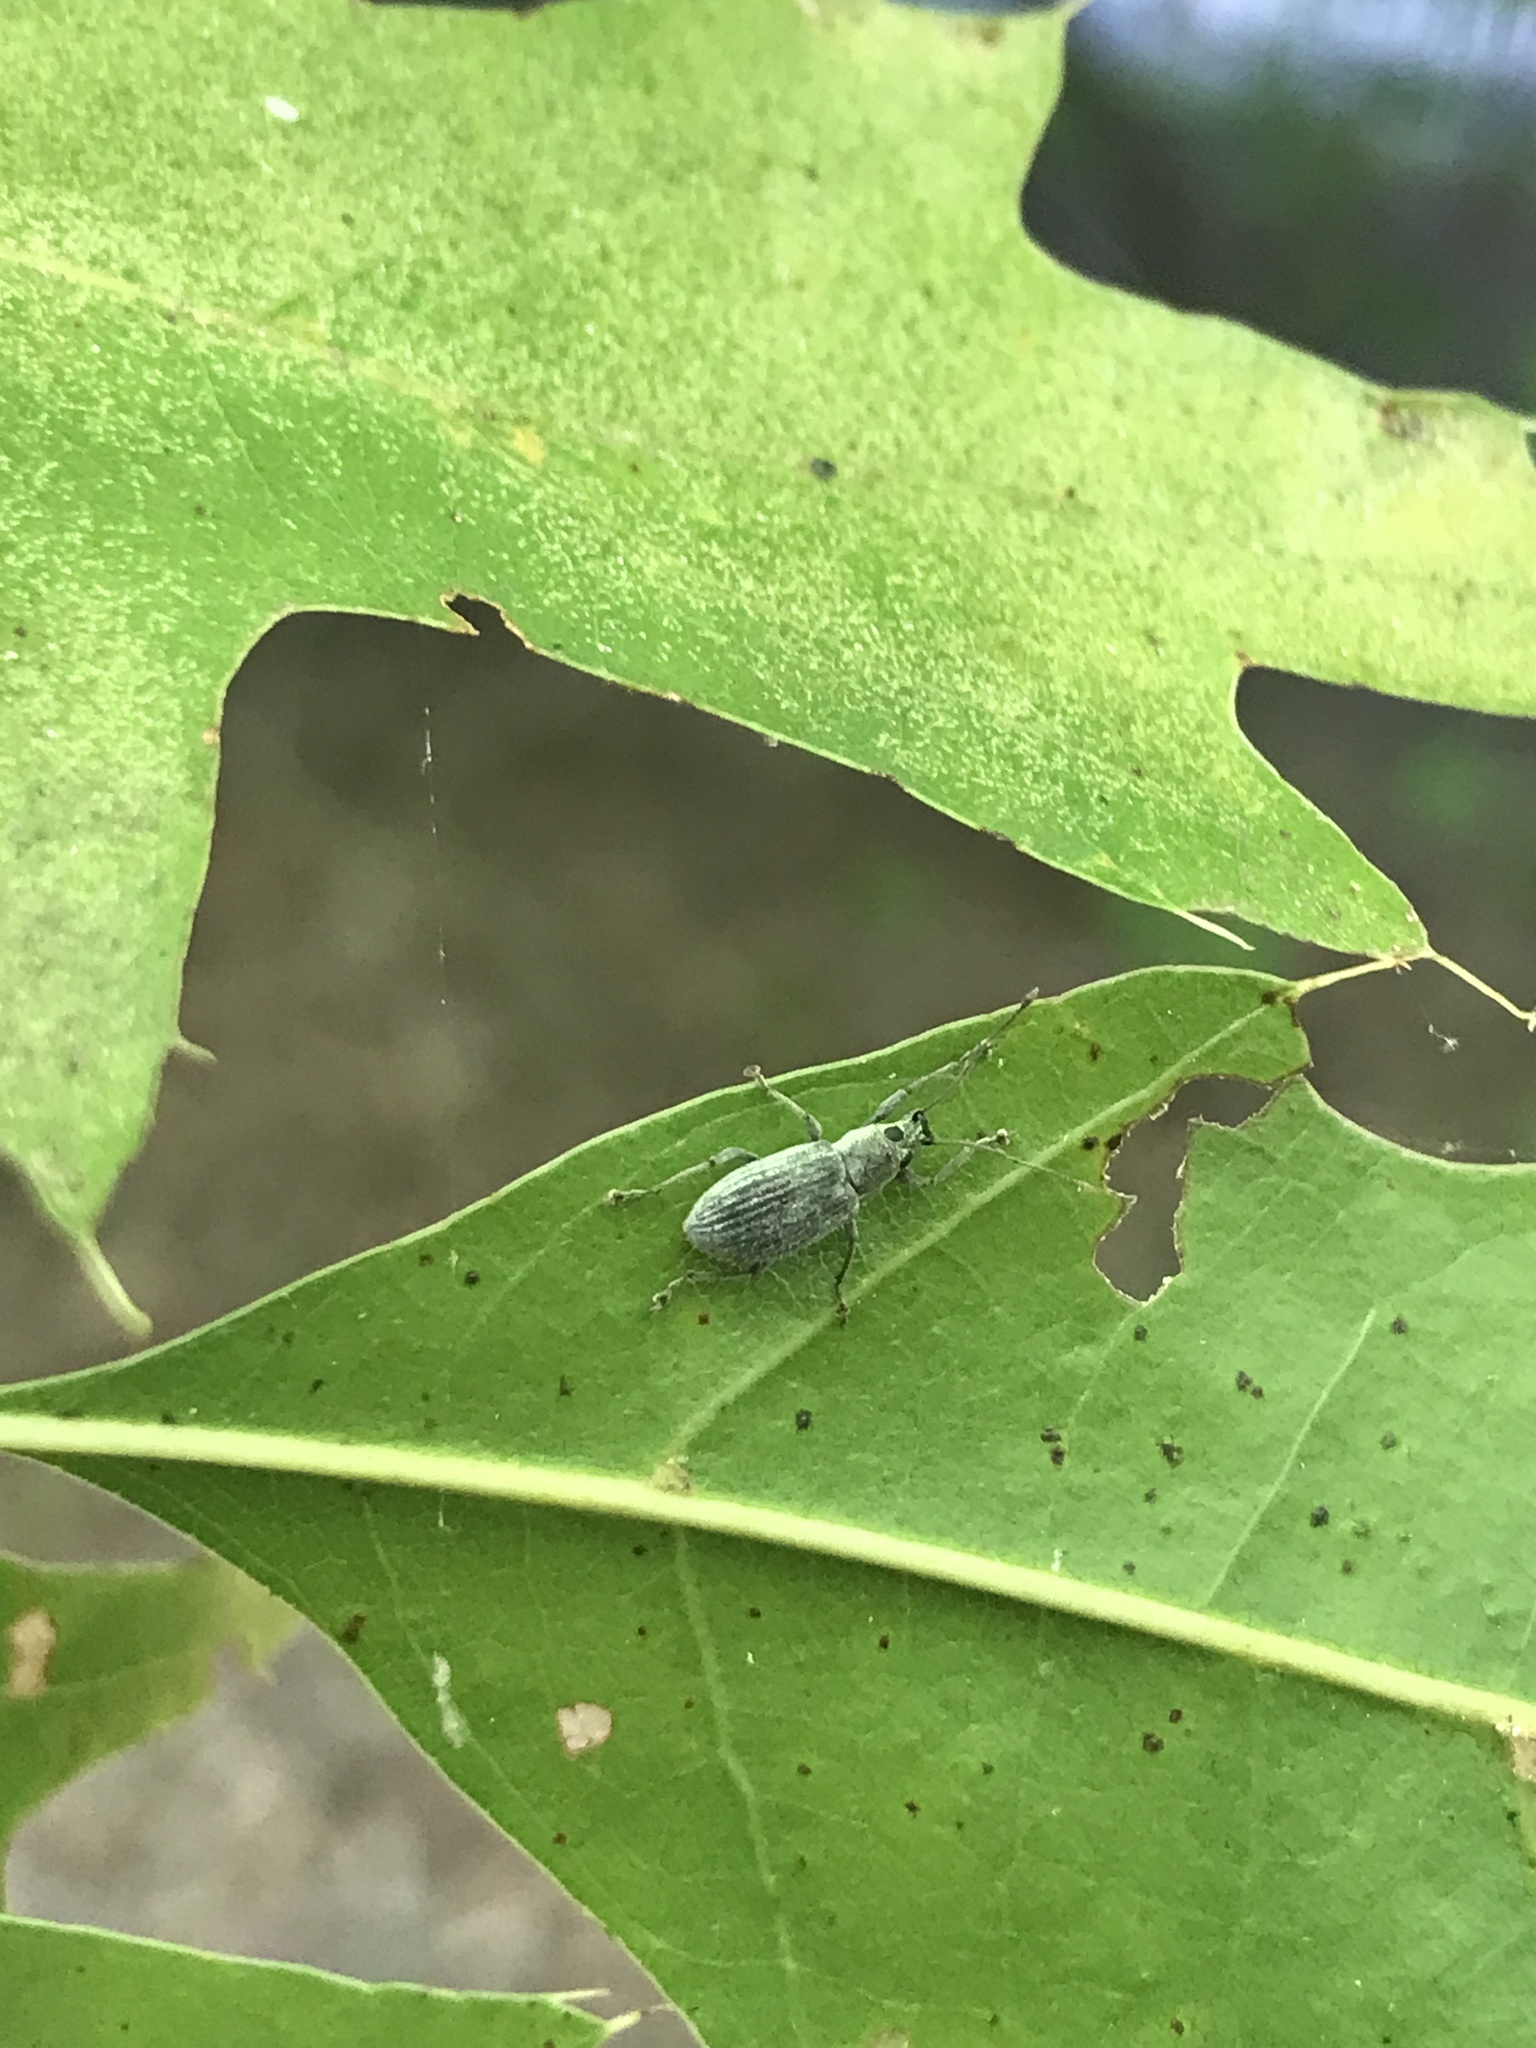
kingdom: Animalia
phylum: Arthropoda
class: Insecta
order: Coleoptera
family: Curculionidae
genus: Cyrtepistomus
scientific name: Cyrtepistomus castaneus
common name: Weevil
